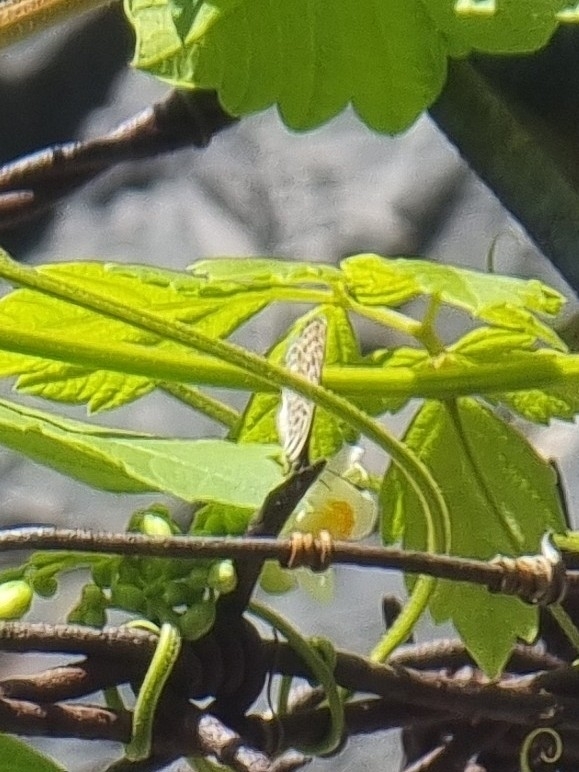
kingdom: Animalia
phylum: Arthropoda
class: Insecta
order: Lepidoptera
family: Lycaenidae
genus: Leptotes
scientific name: Leptotes pirithous
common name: Lang's short-tailed blue
